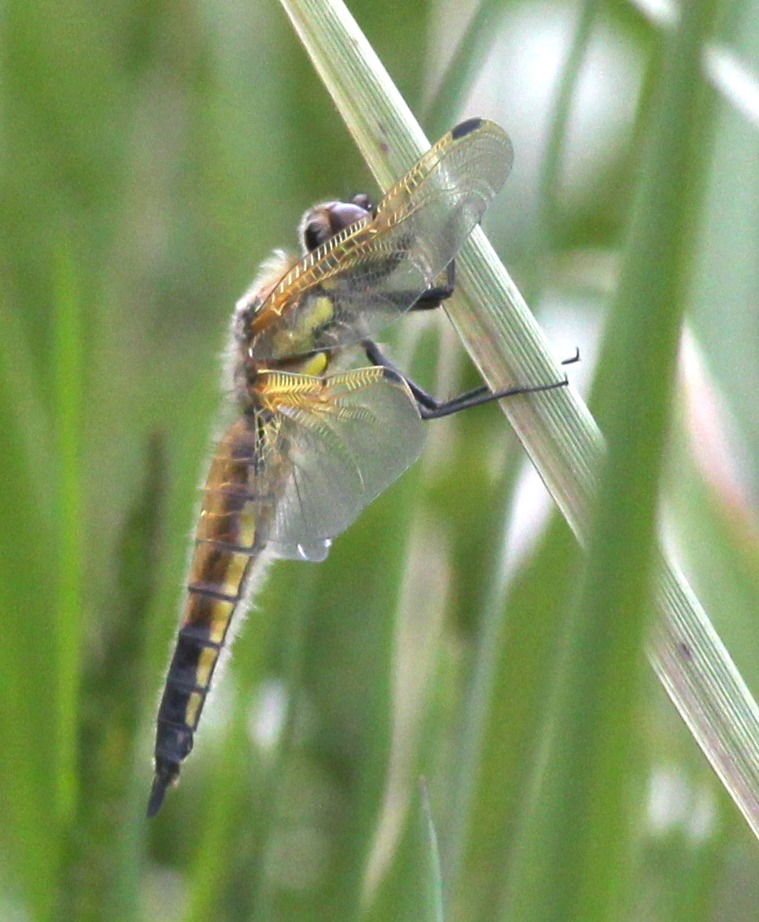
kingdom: Animalia
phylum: Arthropoda
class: Insecta
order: Odonata
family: Libellulidae
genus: Libellula
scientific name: Libellula quadrimaculata
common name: Four-spotted chaser
